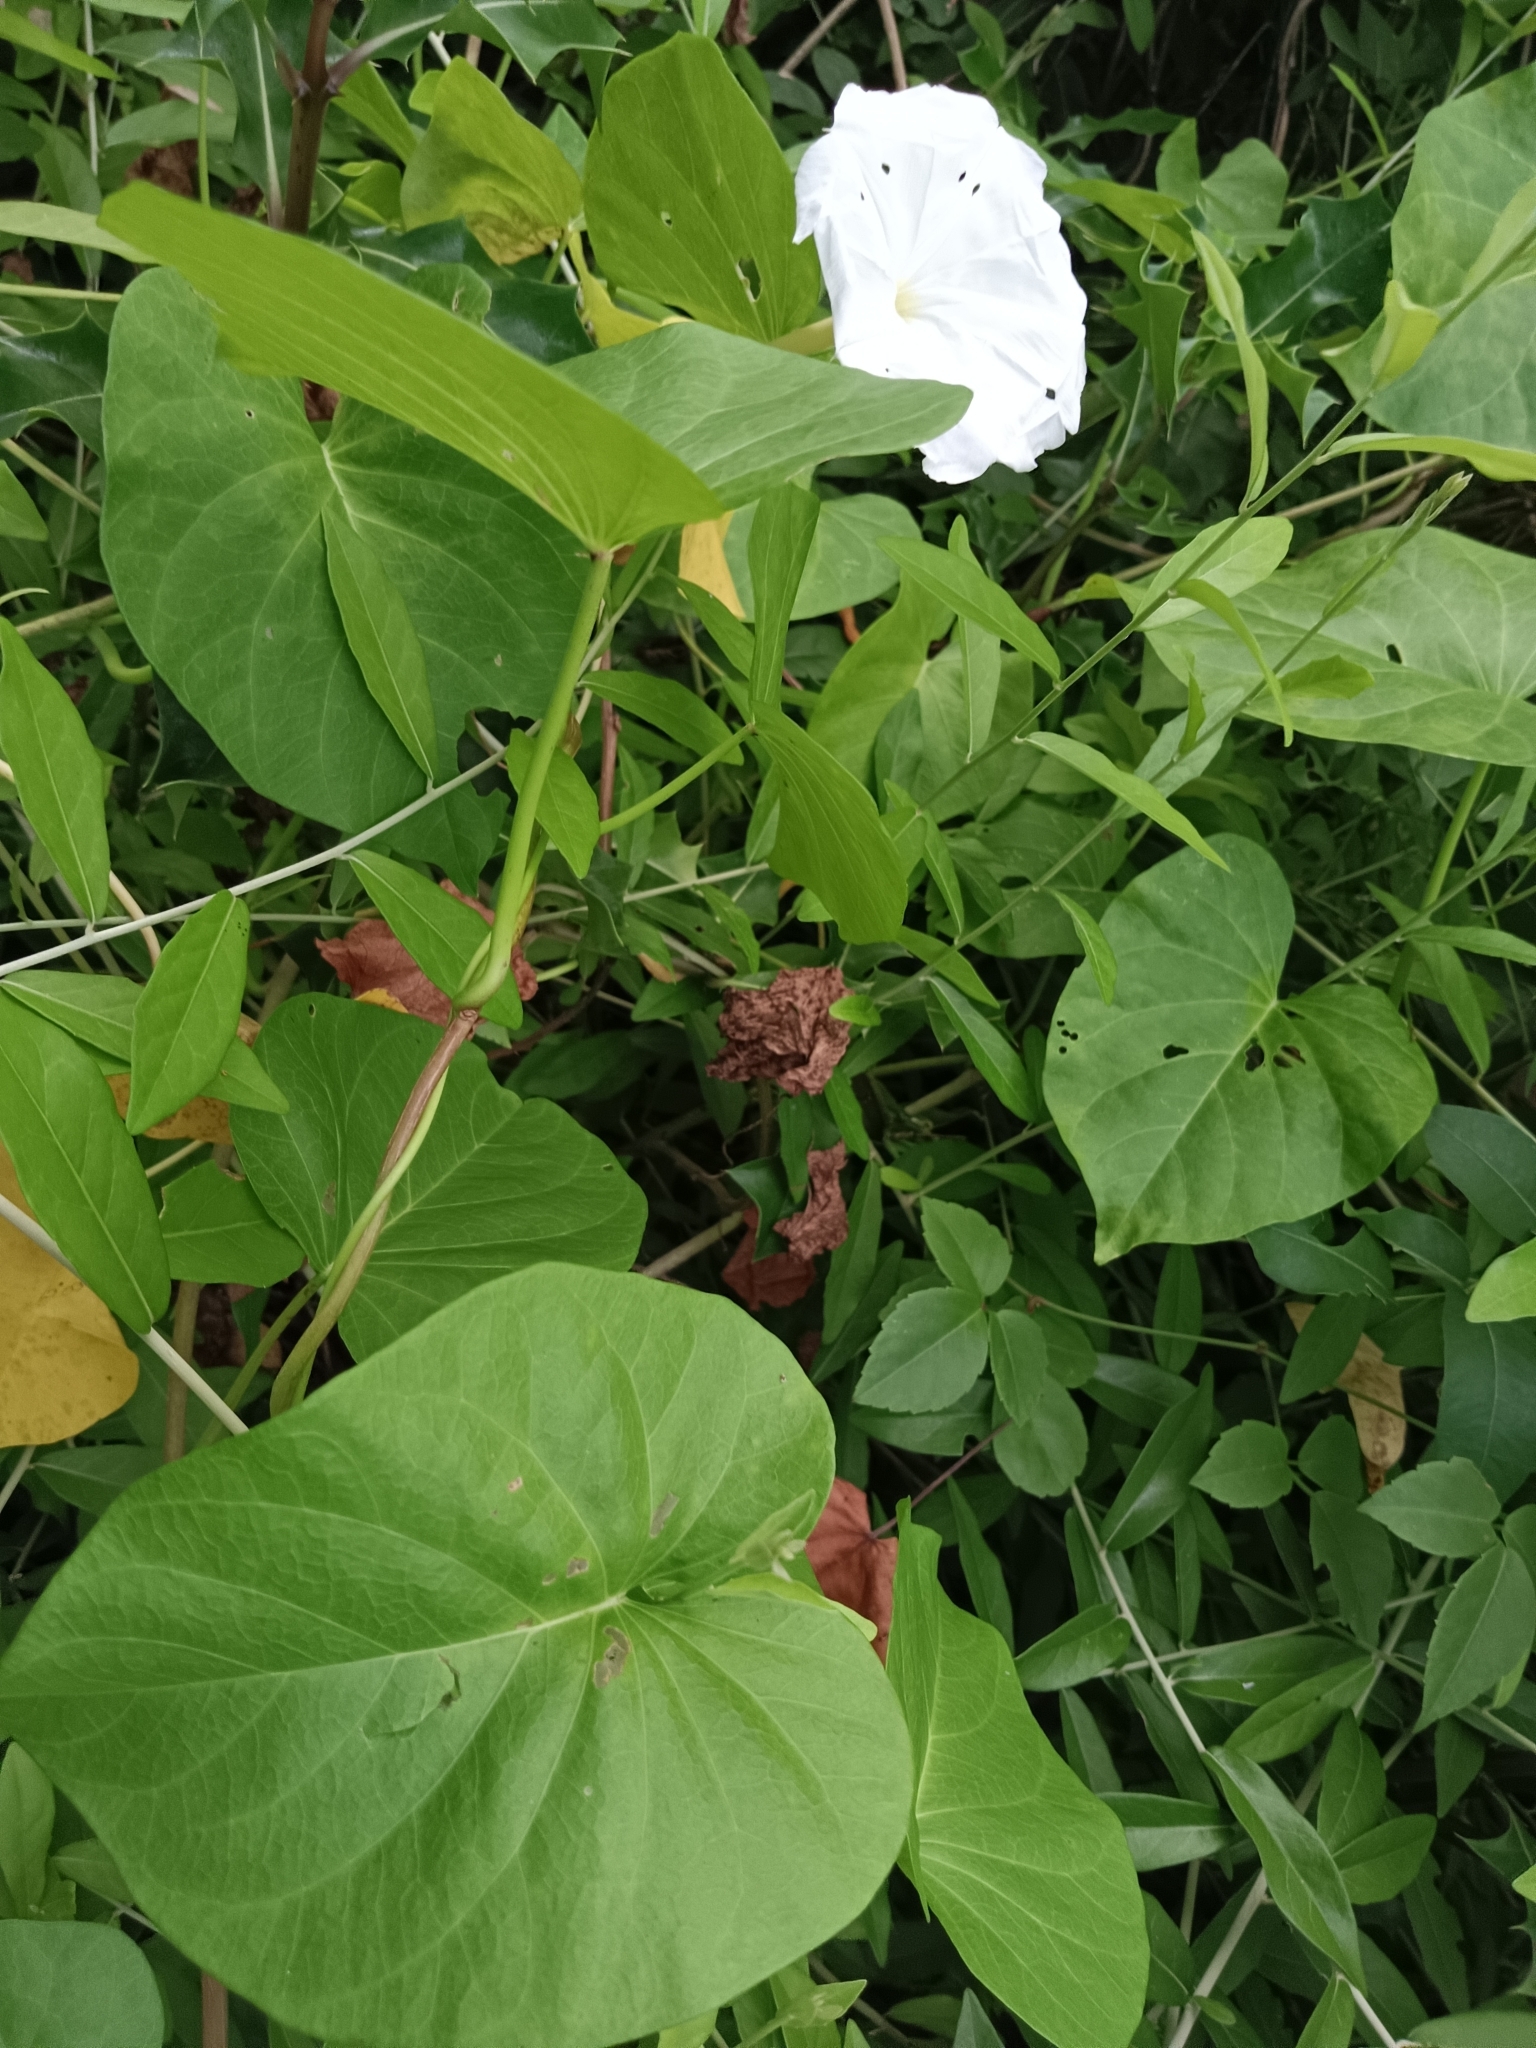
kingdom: Plantae
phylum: Tracheophyta
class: Magnoliopsida
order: Solanales
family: Convolvulaceae
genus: Ipomoea
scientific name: Ipomoea violacea
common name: Beach moonflower
